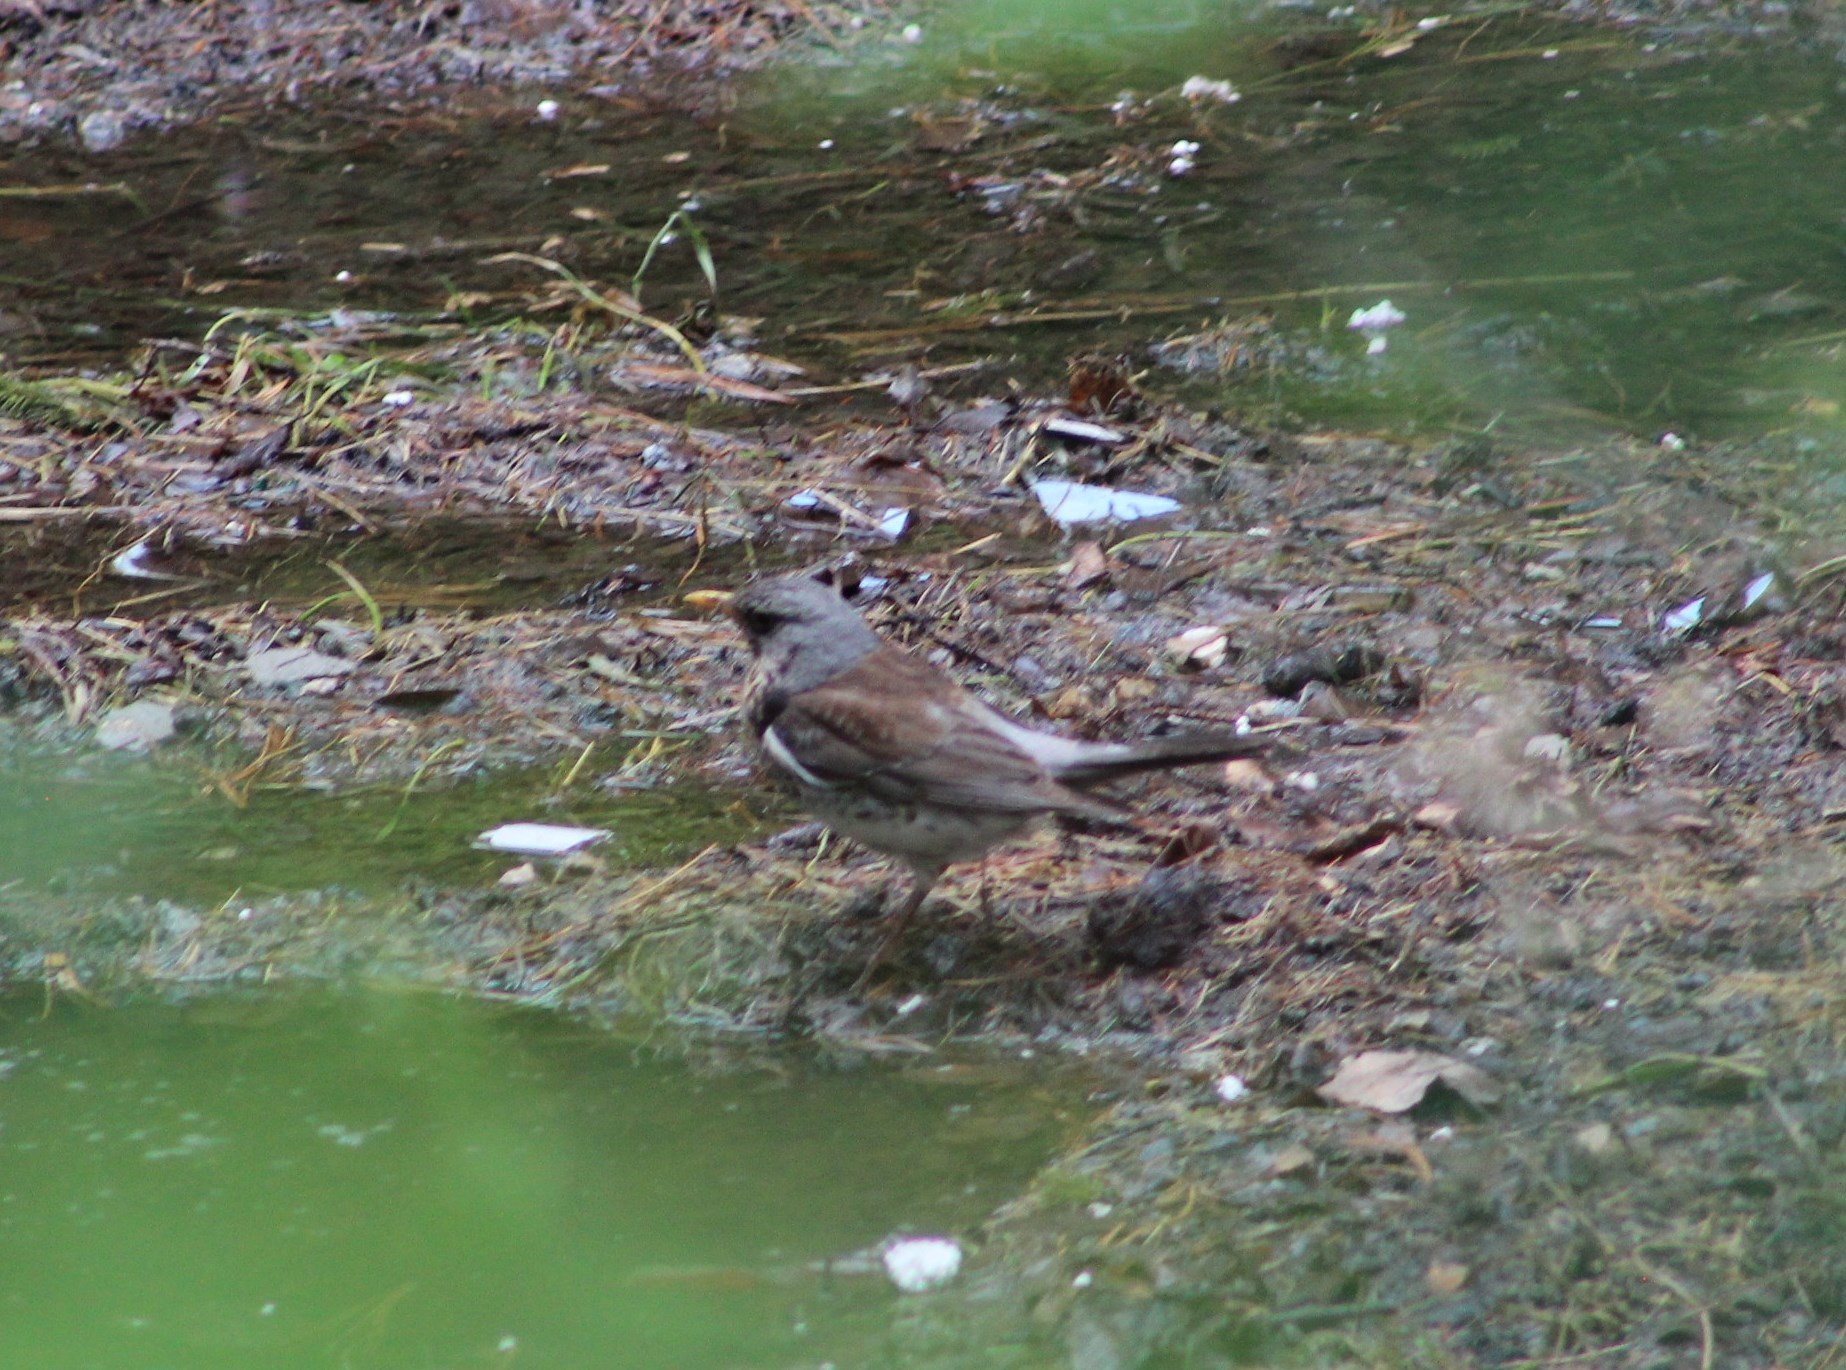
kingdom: Animalia
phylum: Chordata
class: Aves
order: Passeriformes
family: Turdidae
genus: Turdus
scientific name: Turdus pilaris
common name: Fieldfare
